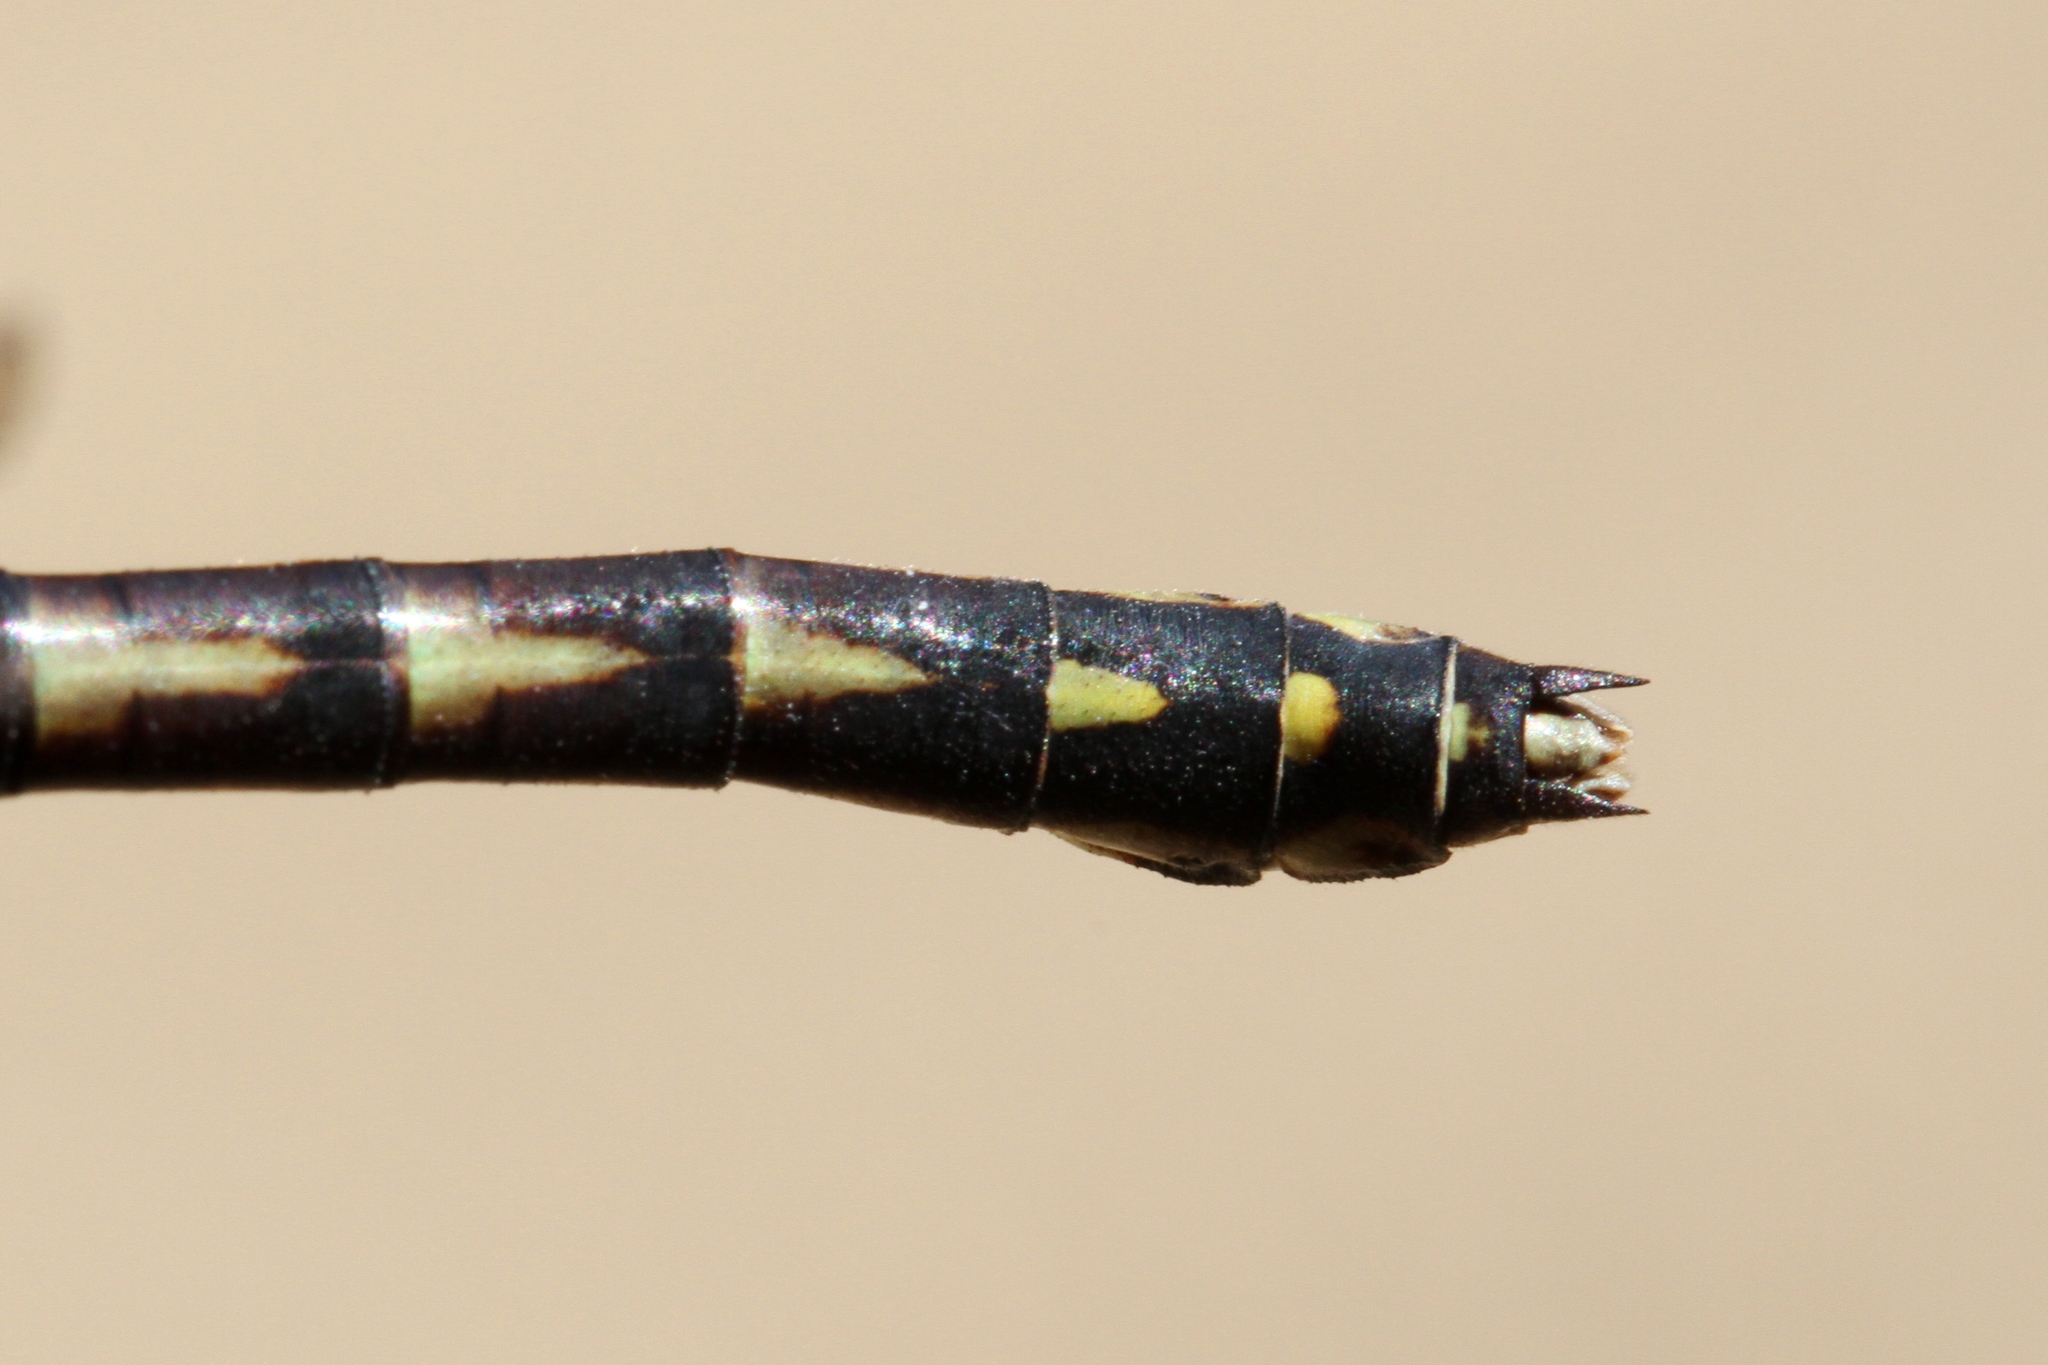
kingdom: Animalia
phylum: Arthropoda
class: Insecta
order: Odonata
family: Gomphidae
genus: Ophiogomphus
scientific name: Ophiogomphus aspersus
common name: Brook snaketail
